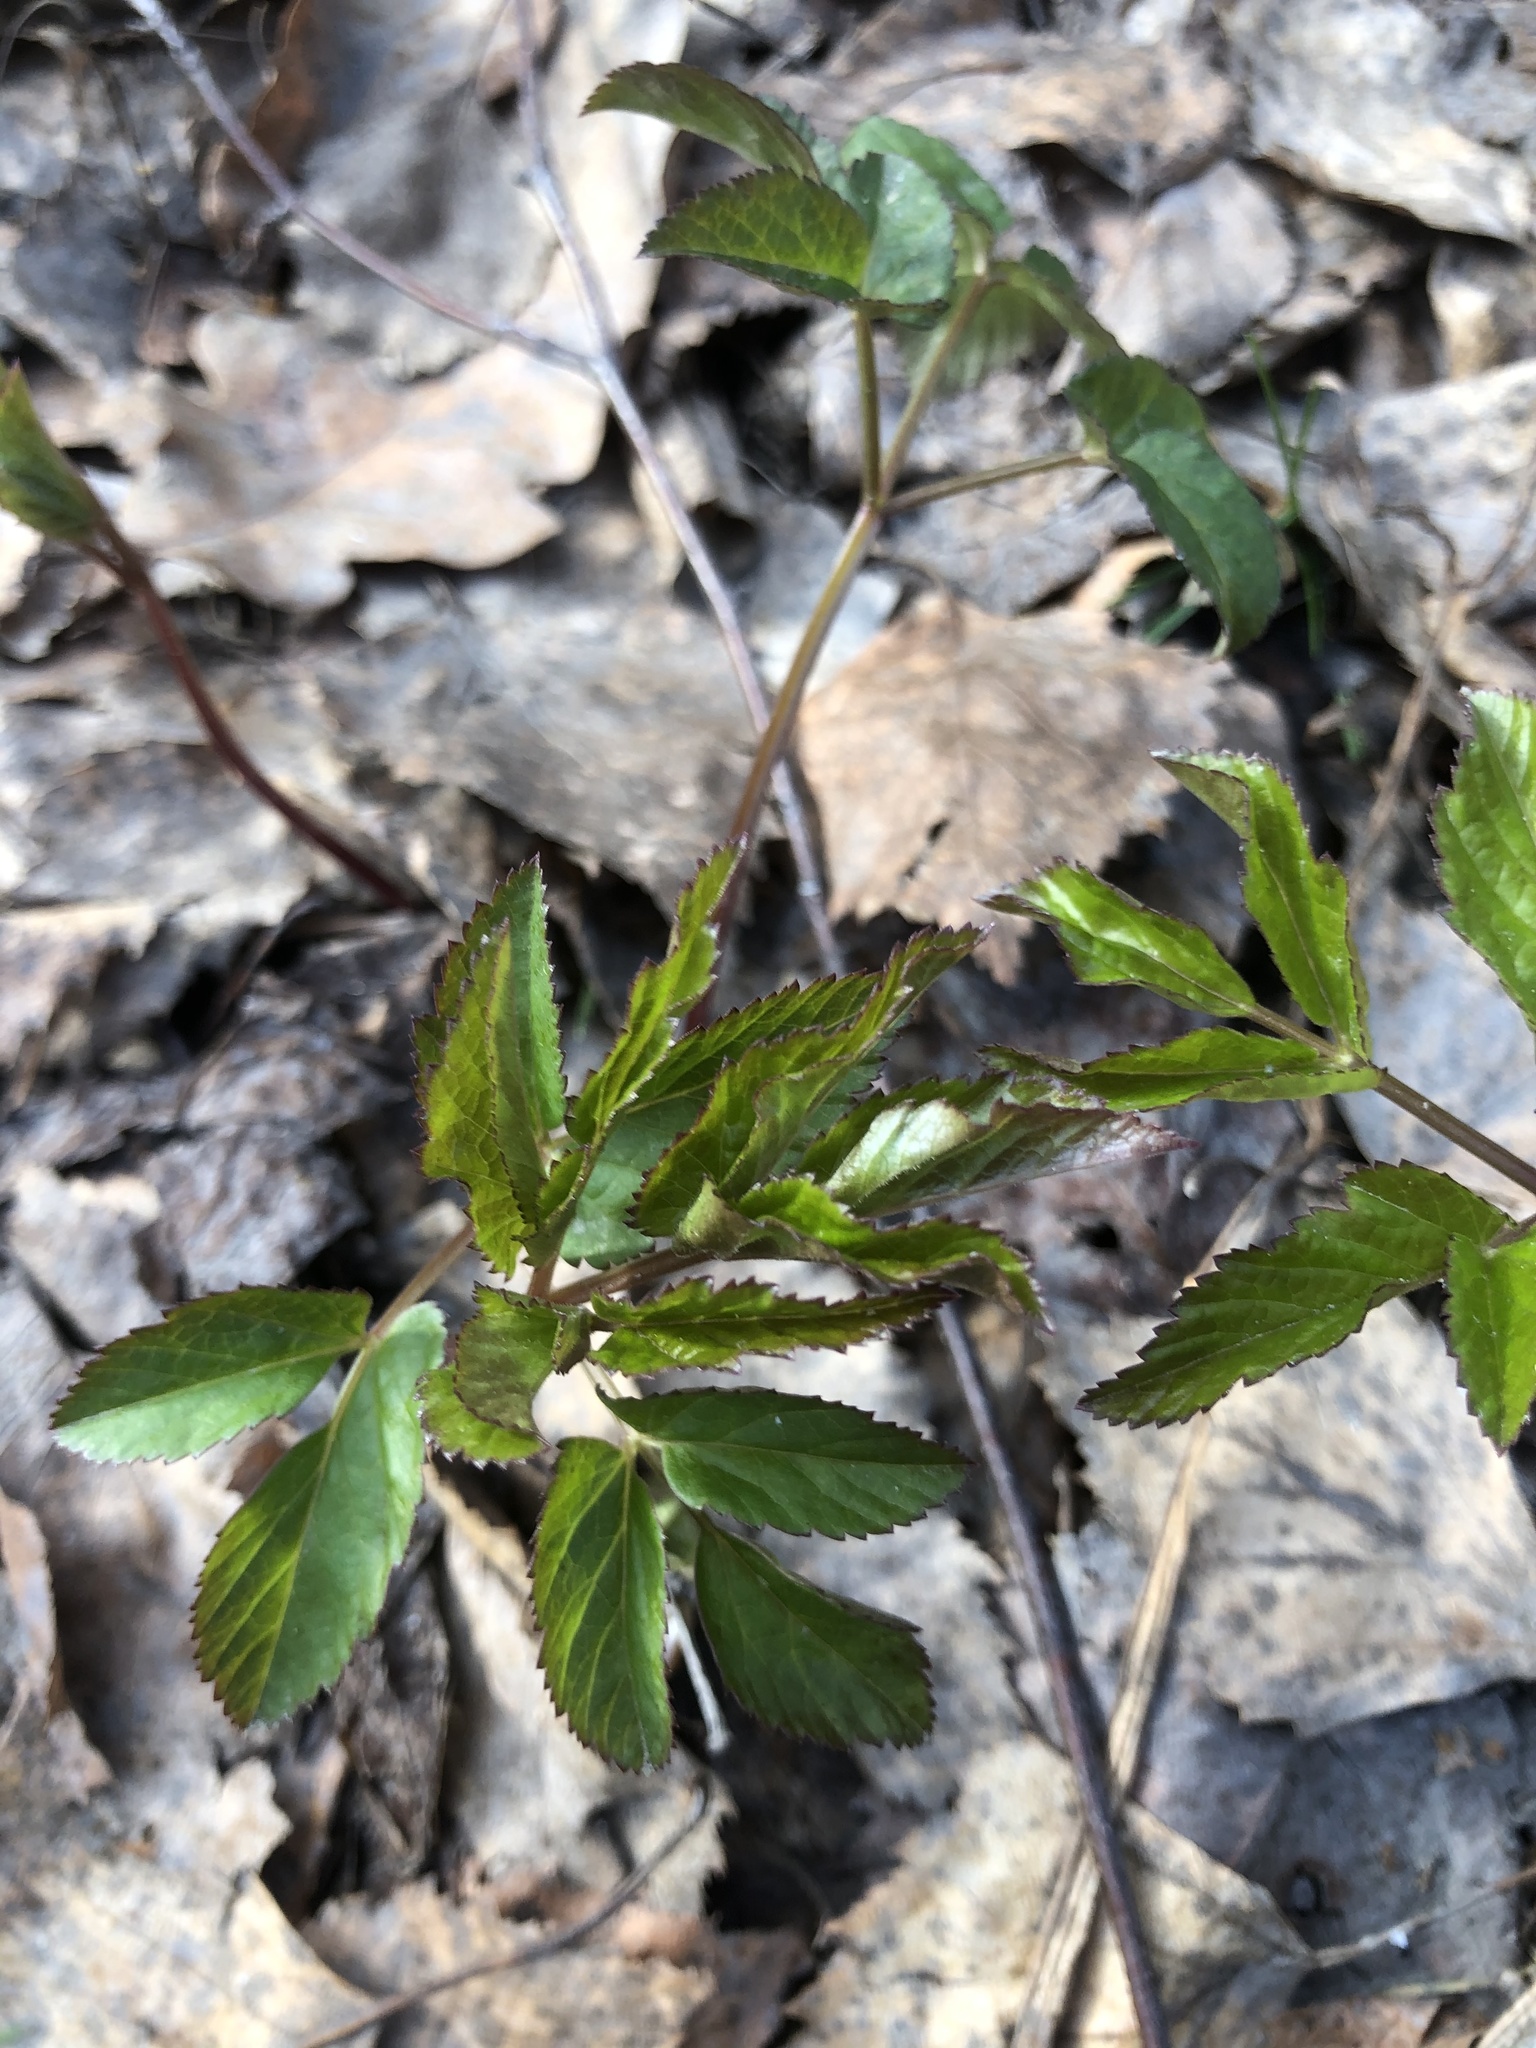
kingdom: Plantae
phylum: Tracheophyta
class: Magnoliopsida
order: Apiales
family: Apiaceae
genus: Aegopodium
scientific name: Aegopodium podagraria
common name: Ground-elder
